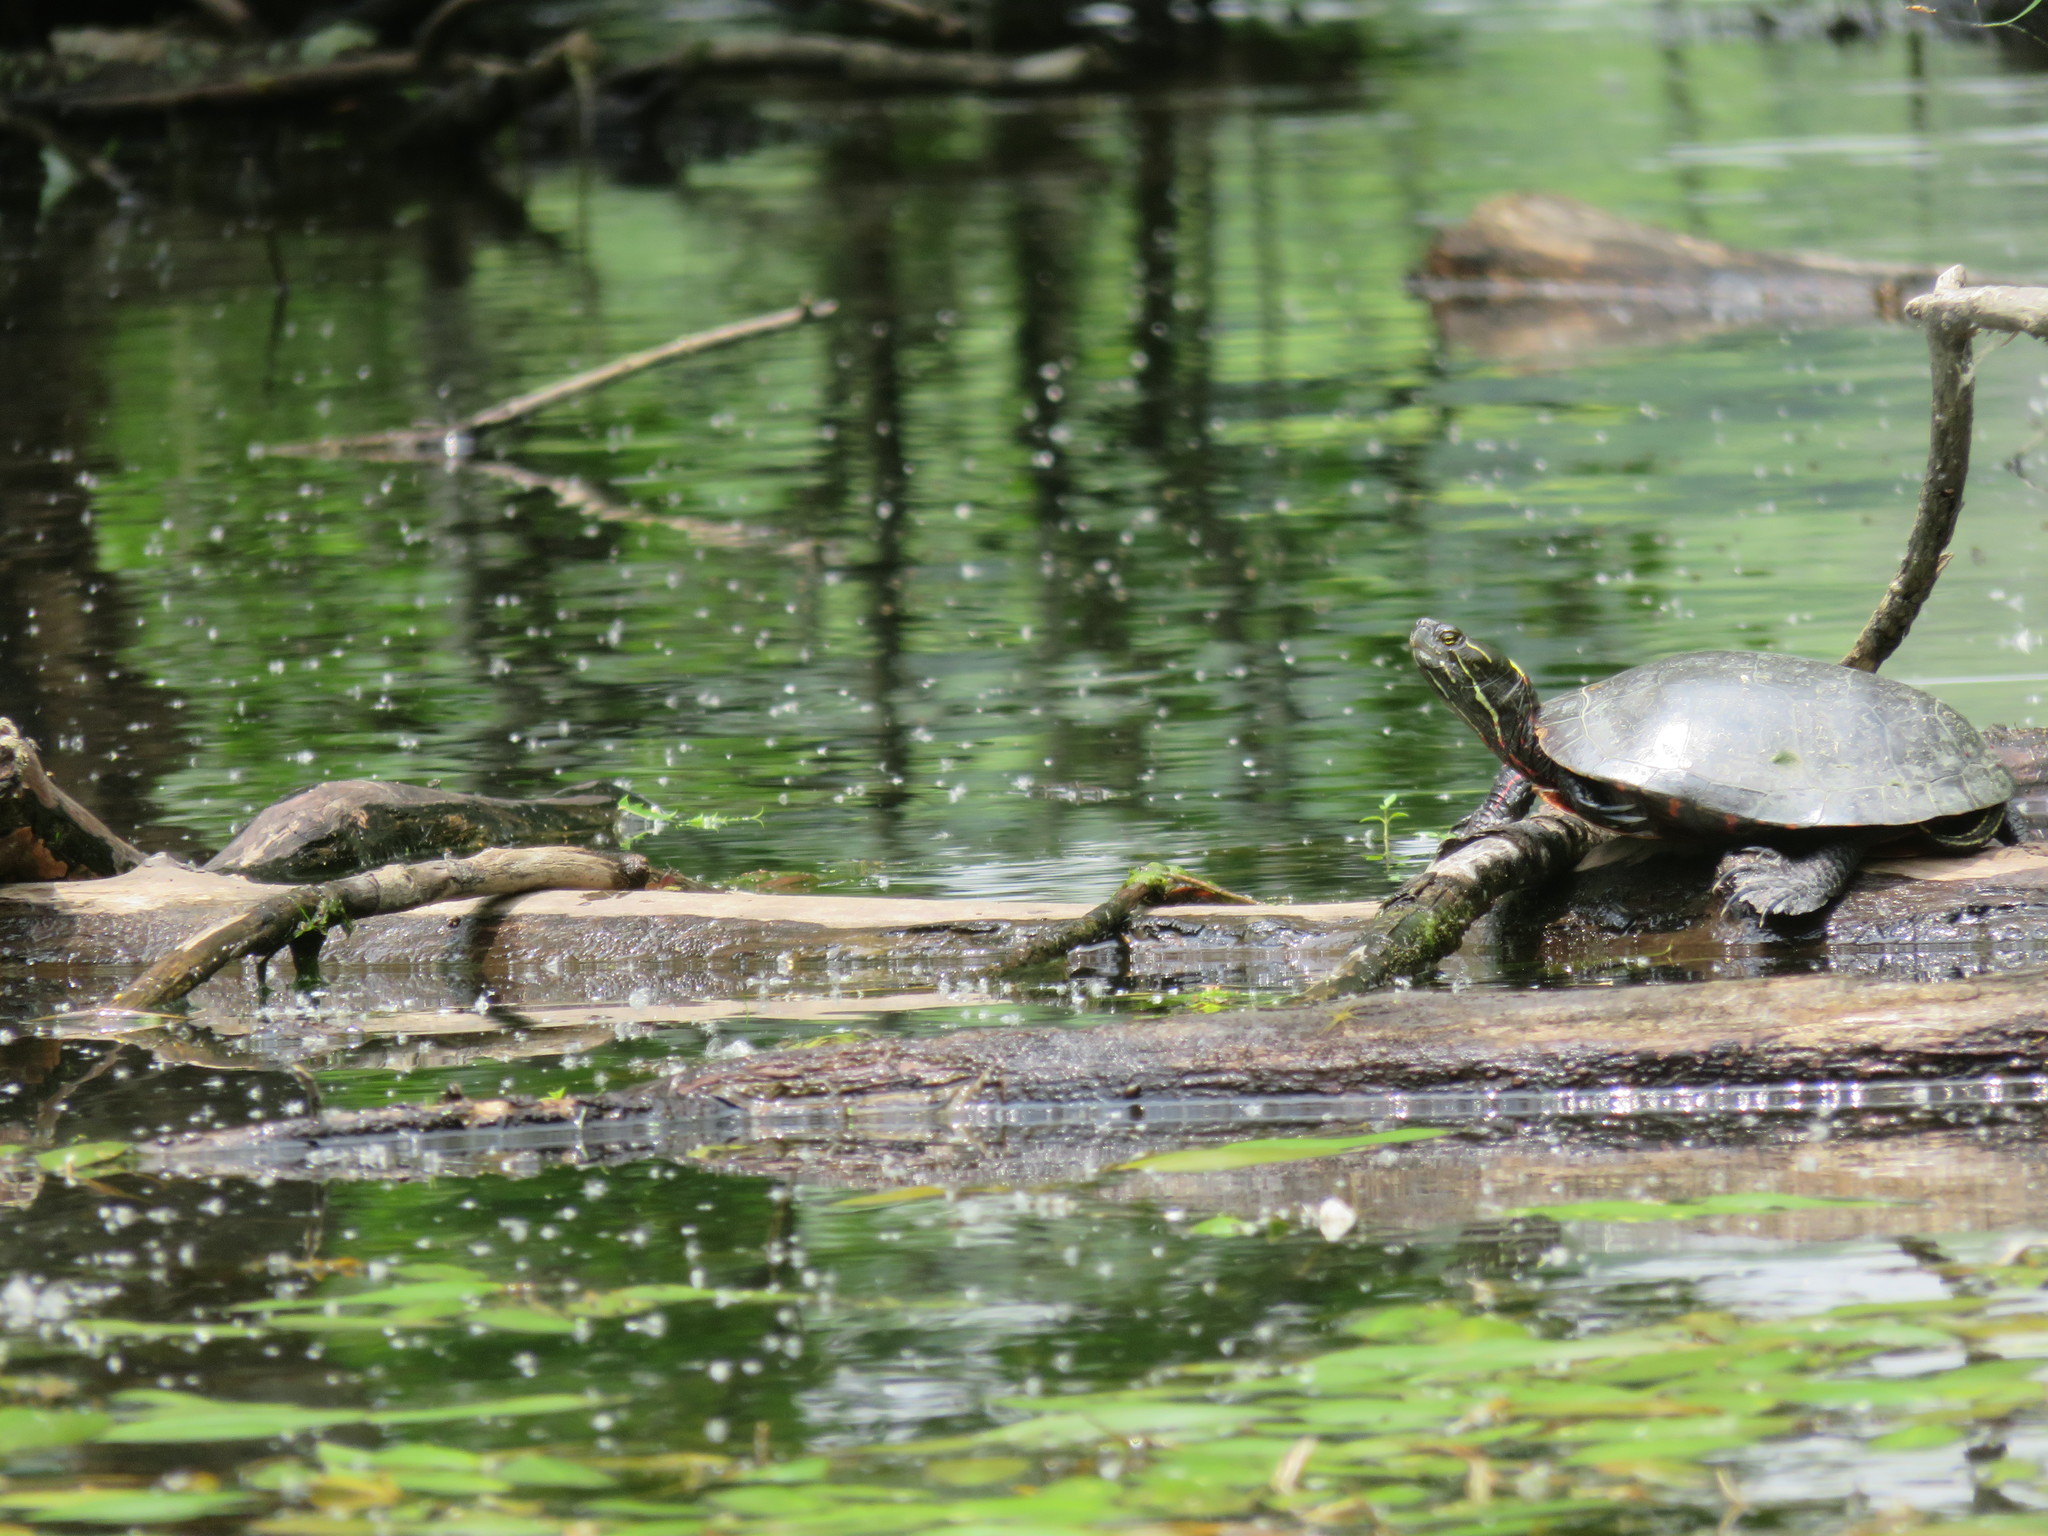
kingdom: Animalia
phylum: Chordata
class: Testudines
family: Emydidae
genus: Chrysemys
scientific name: Chrysemys picta
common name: Painted turtle
